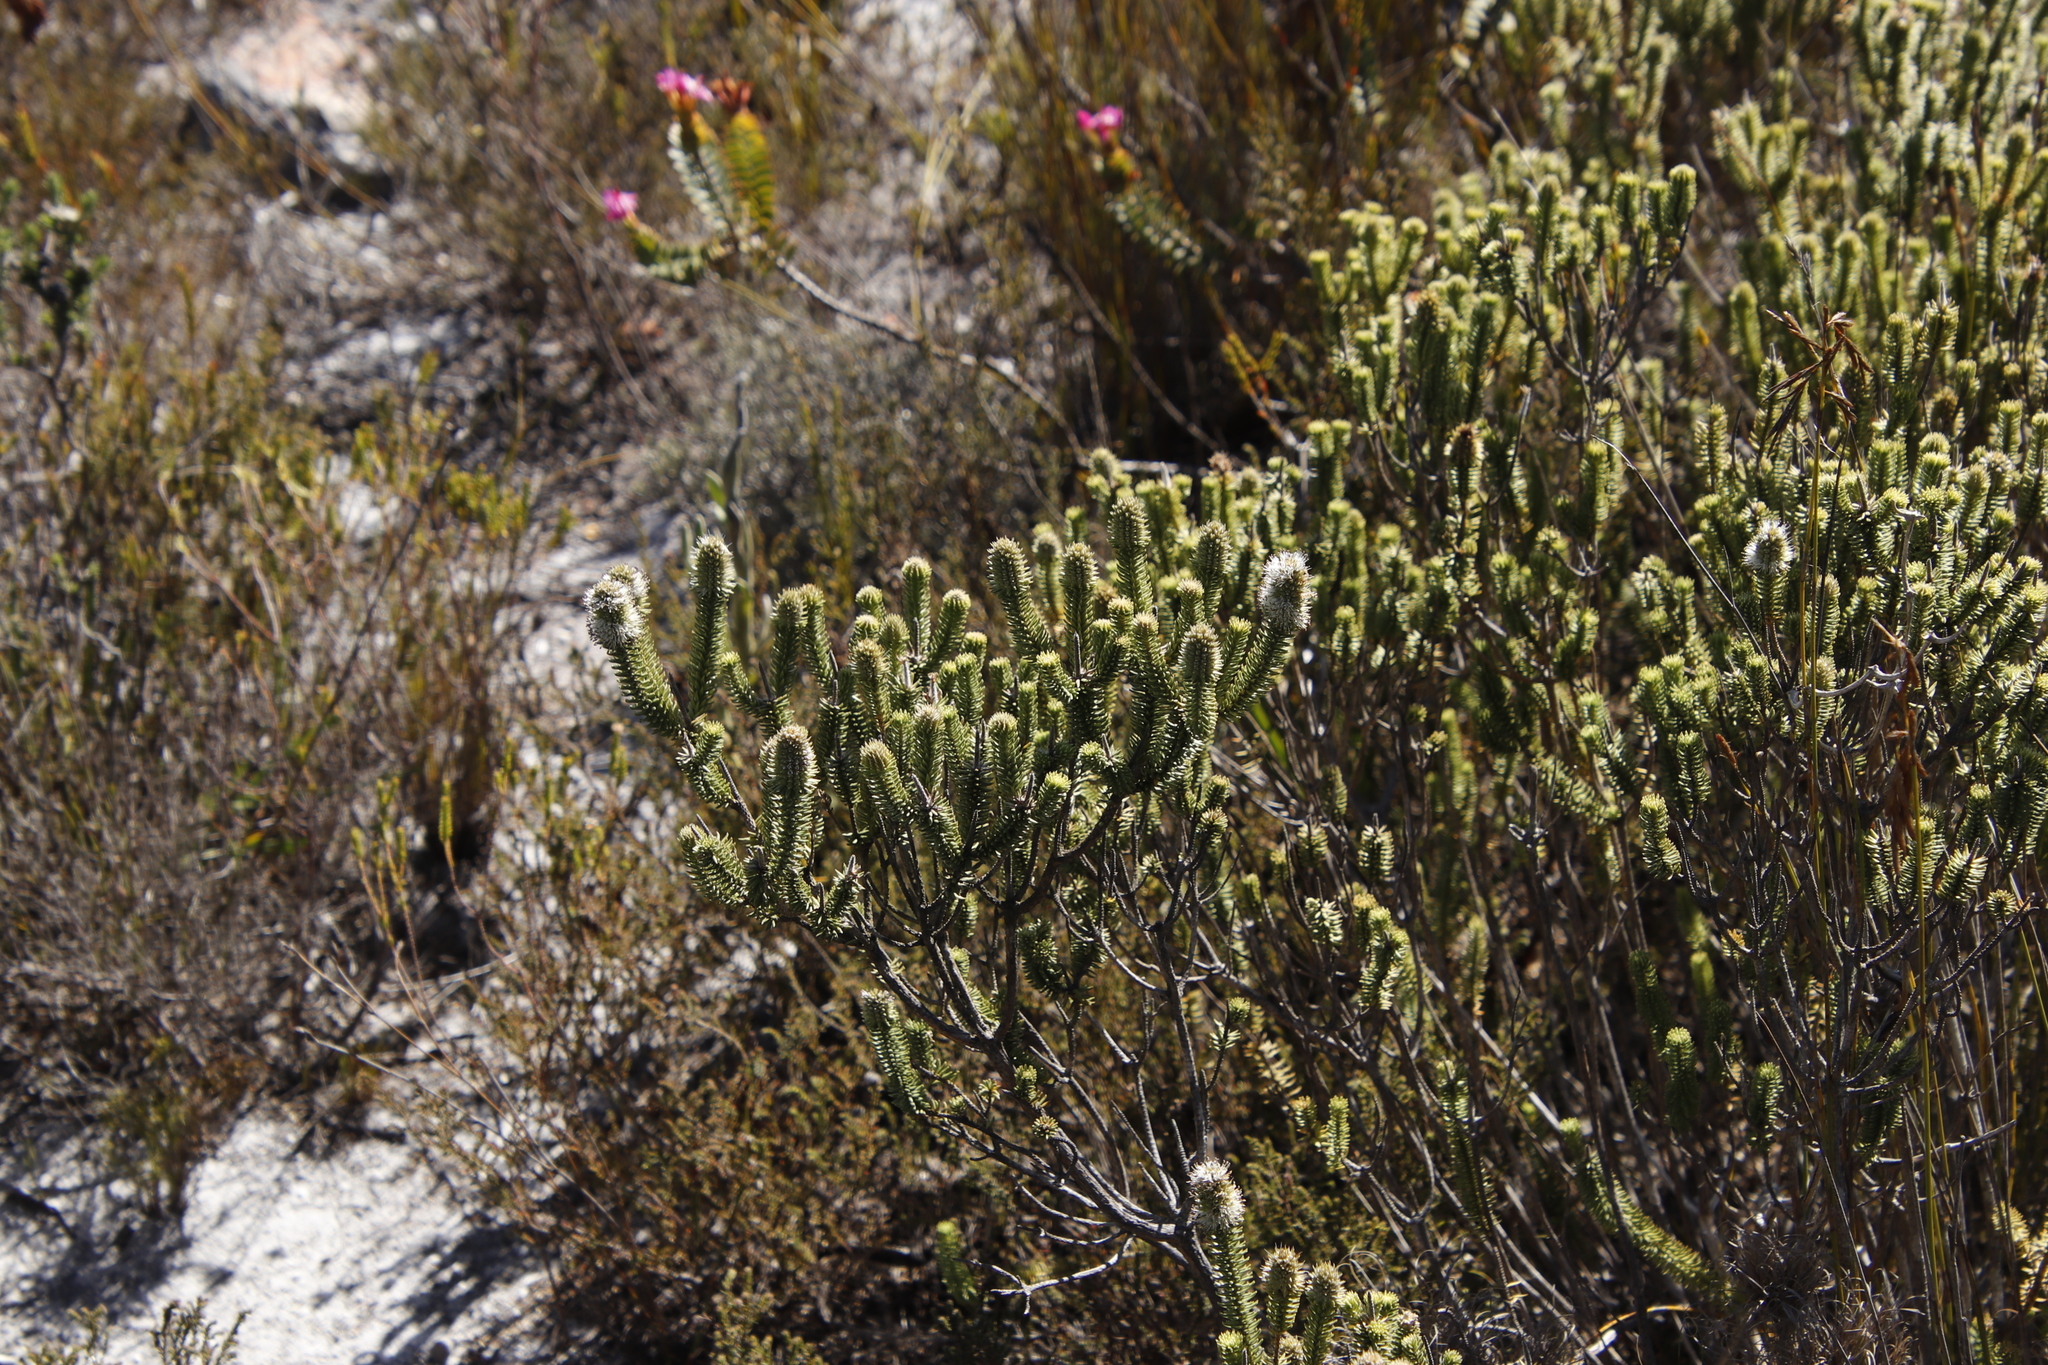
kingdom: Plantae
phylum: Tracheophyta
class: Magnoliopsida
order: Lamiales
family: Stilbaceae
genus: Stilbe
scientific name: Stilbe vestita
